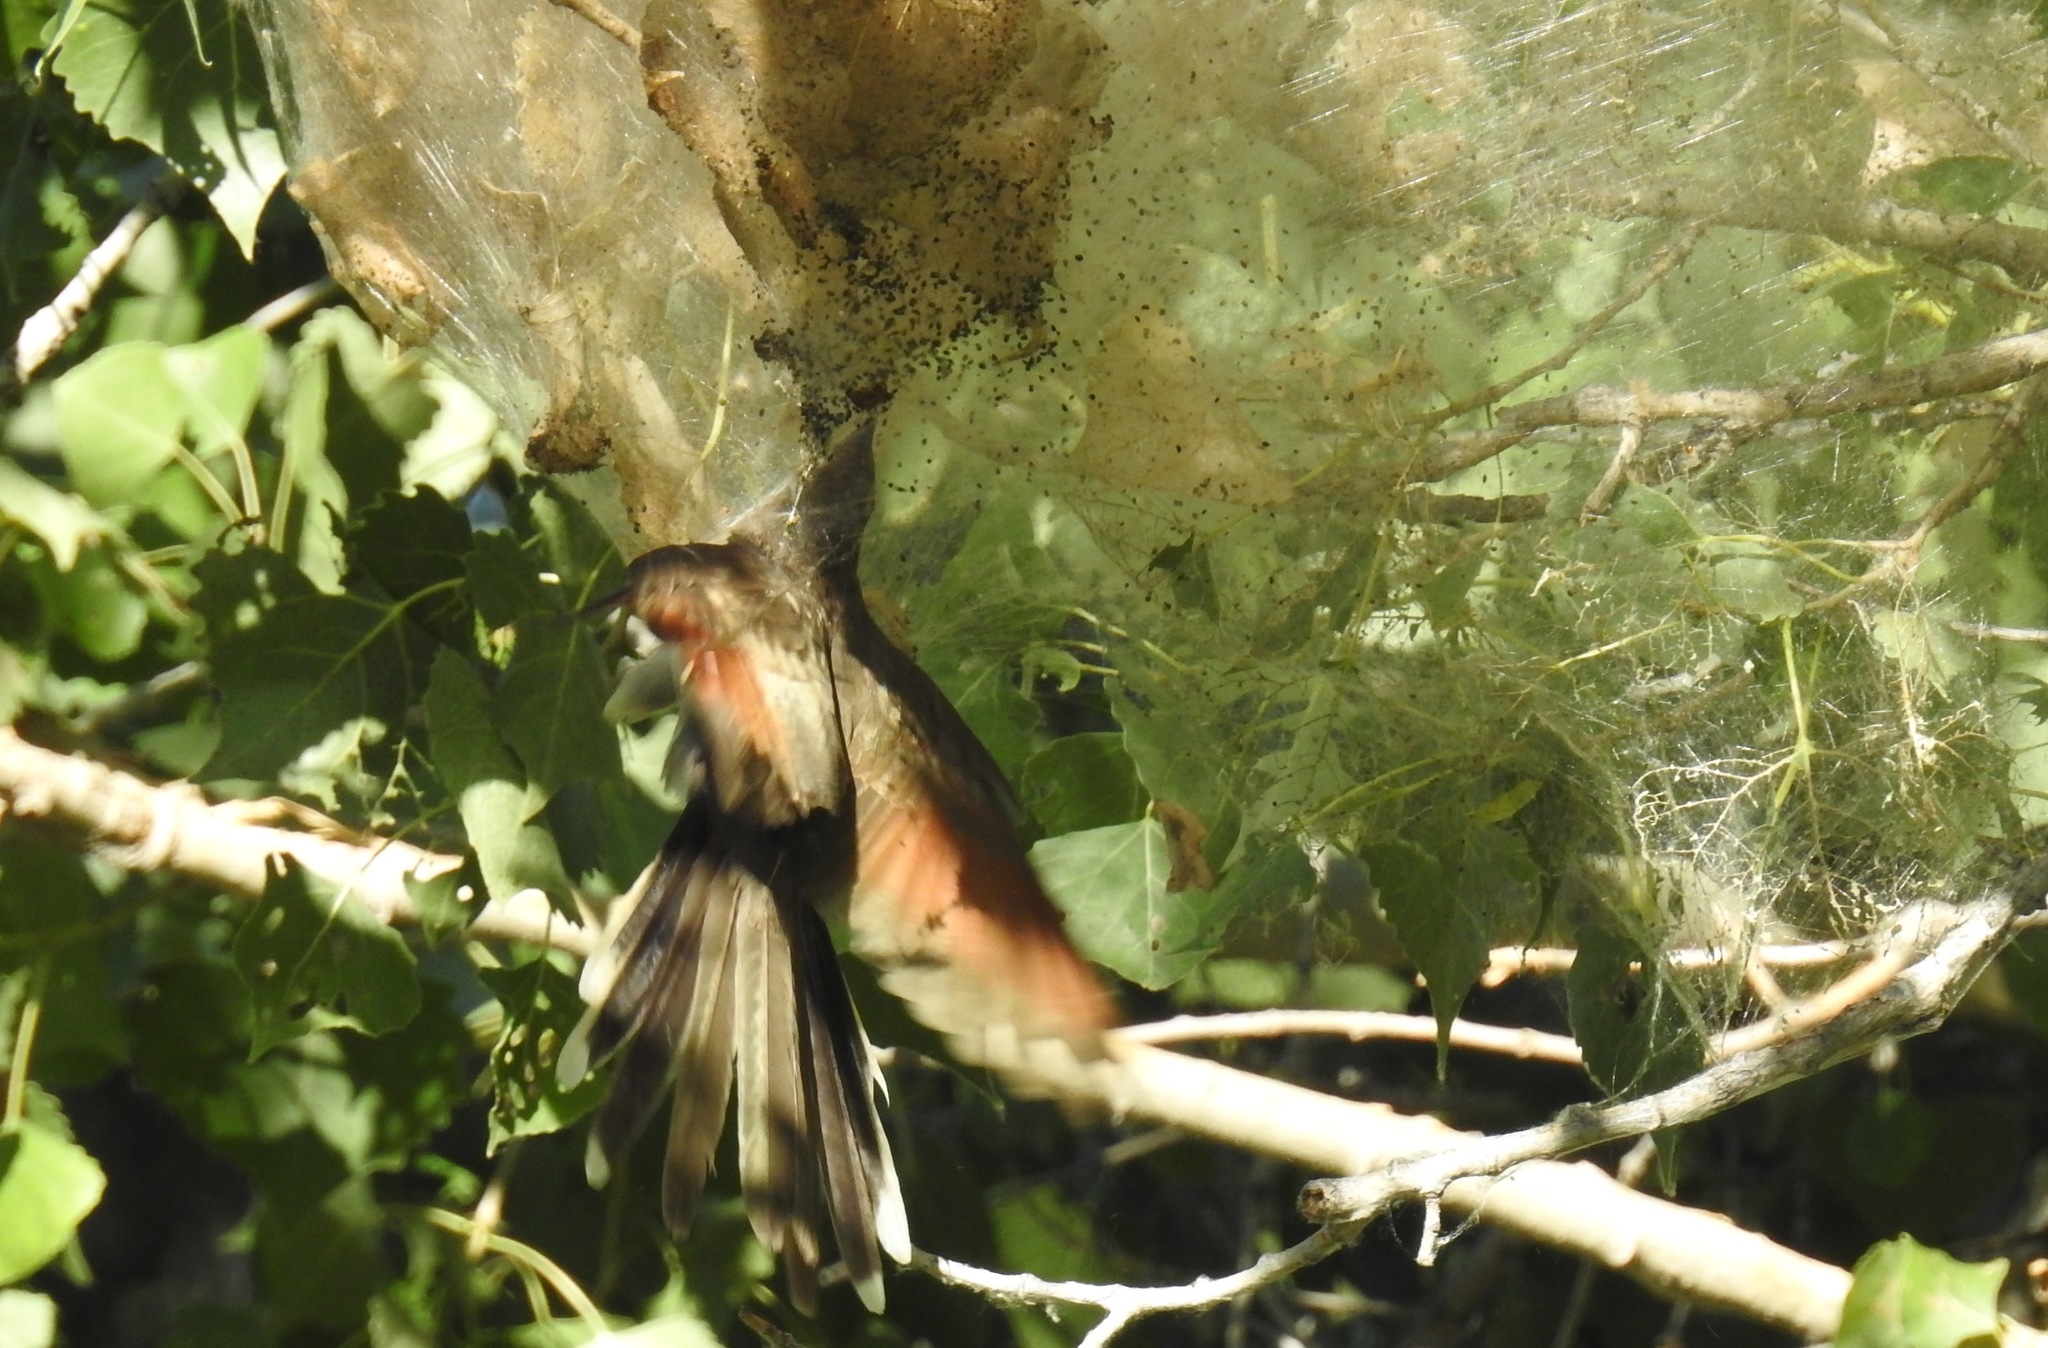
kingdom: Animalia
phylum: Chordata
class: Aves
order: Cuculiformes
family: Cuculidae
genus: Coccyzus
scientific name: Coccyzus americanus
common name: Yellow-billed cuckoo
